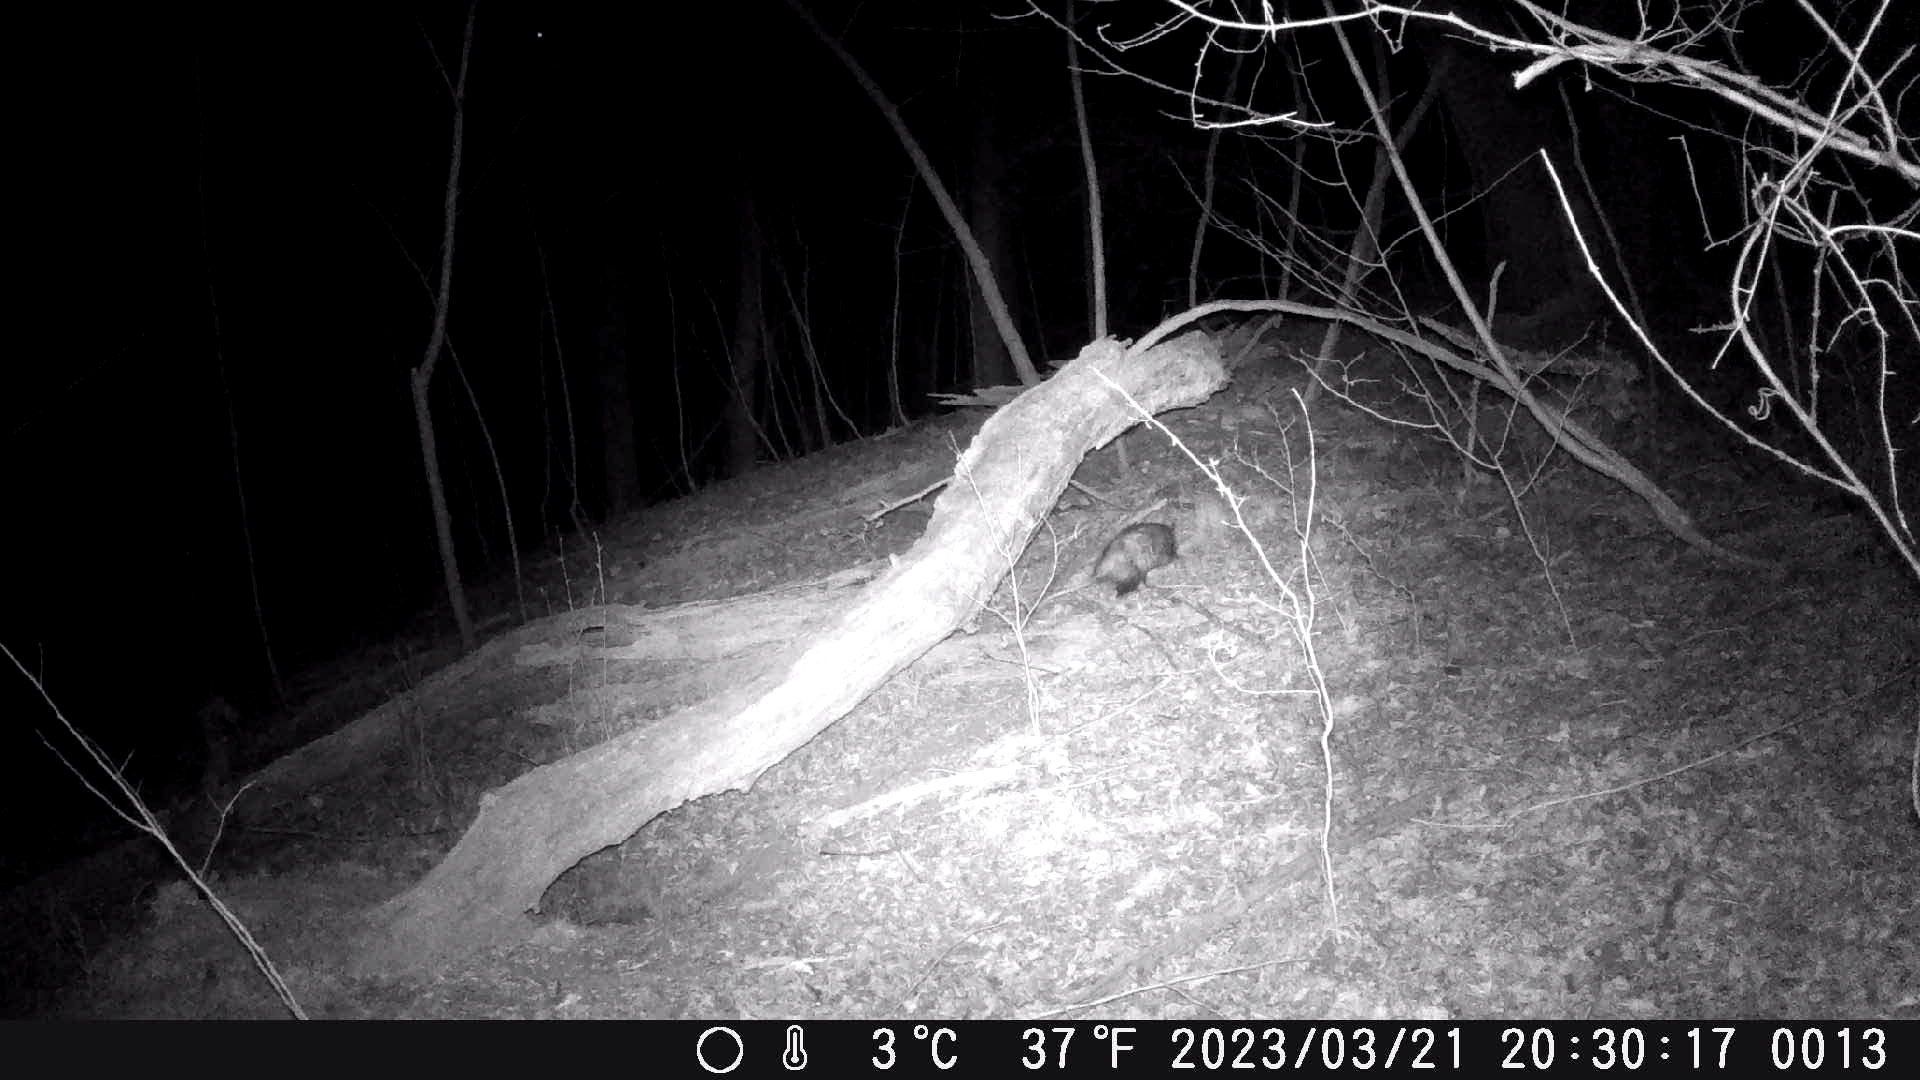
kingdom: Animalia
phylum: Chordata
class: Mammalia
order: Didelphimorphia
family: Didelphidae
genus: Didelphis
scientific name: Didelphis virginiana
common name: Virginia opossum
